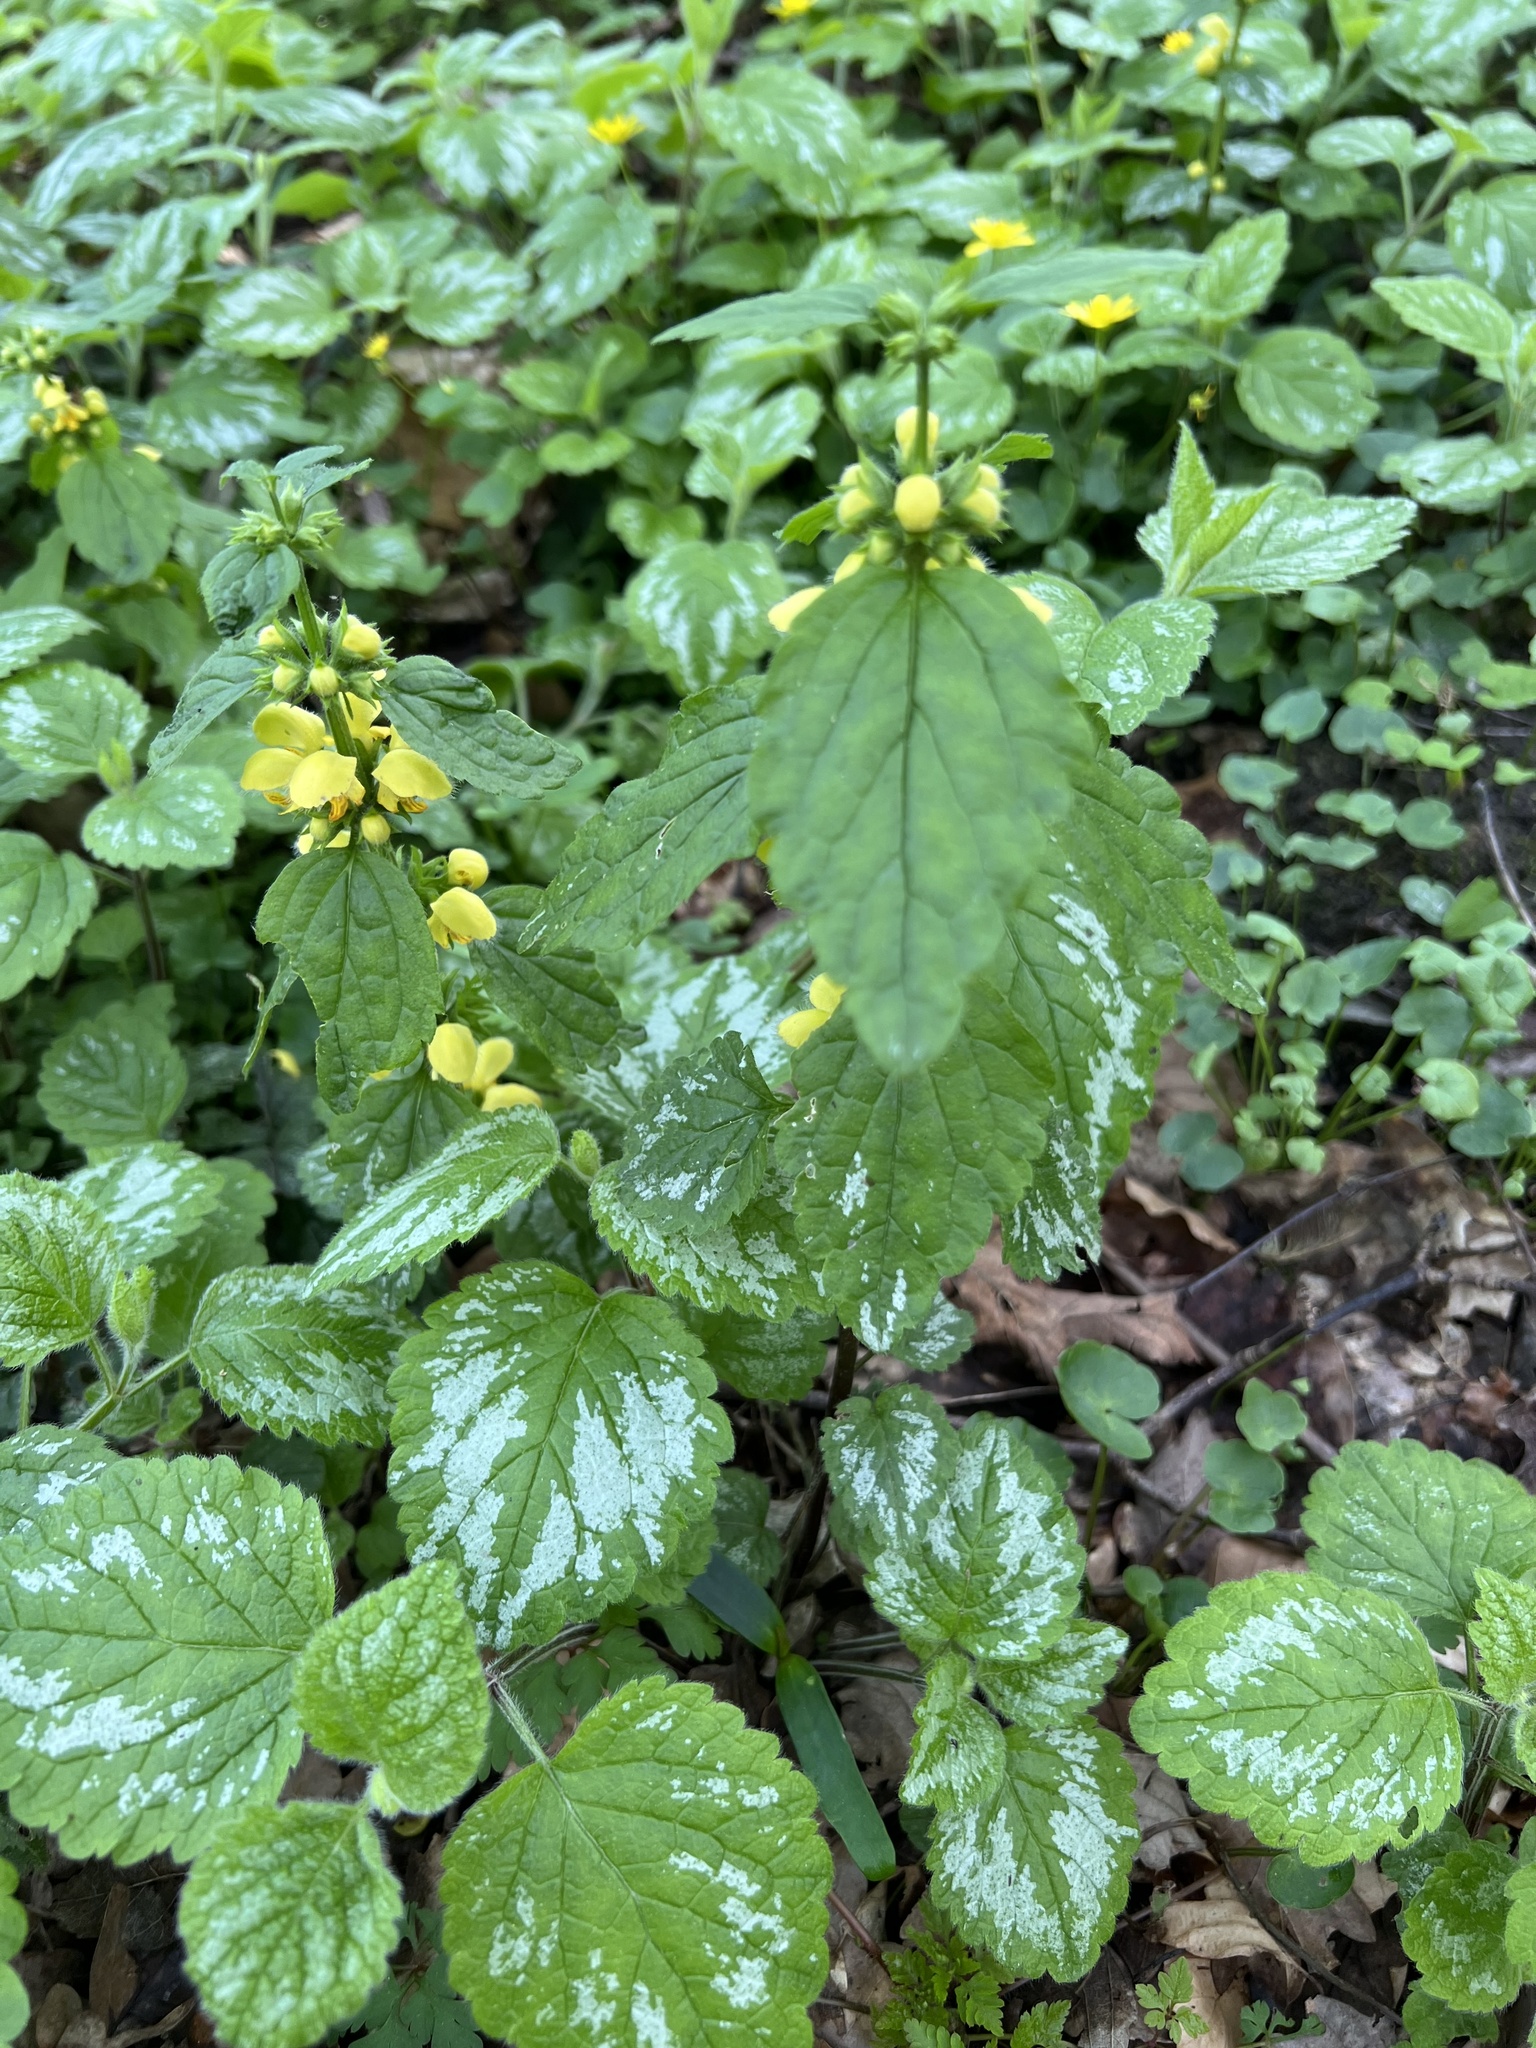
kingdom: Plantae
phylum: Tracheophyta
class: Magnoliopsida
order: Lamiales
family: Lamiaceae
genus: Lamium
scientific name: Lamium galeobdolon
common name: Yellow archangel
